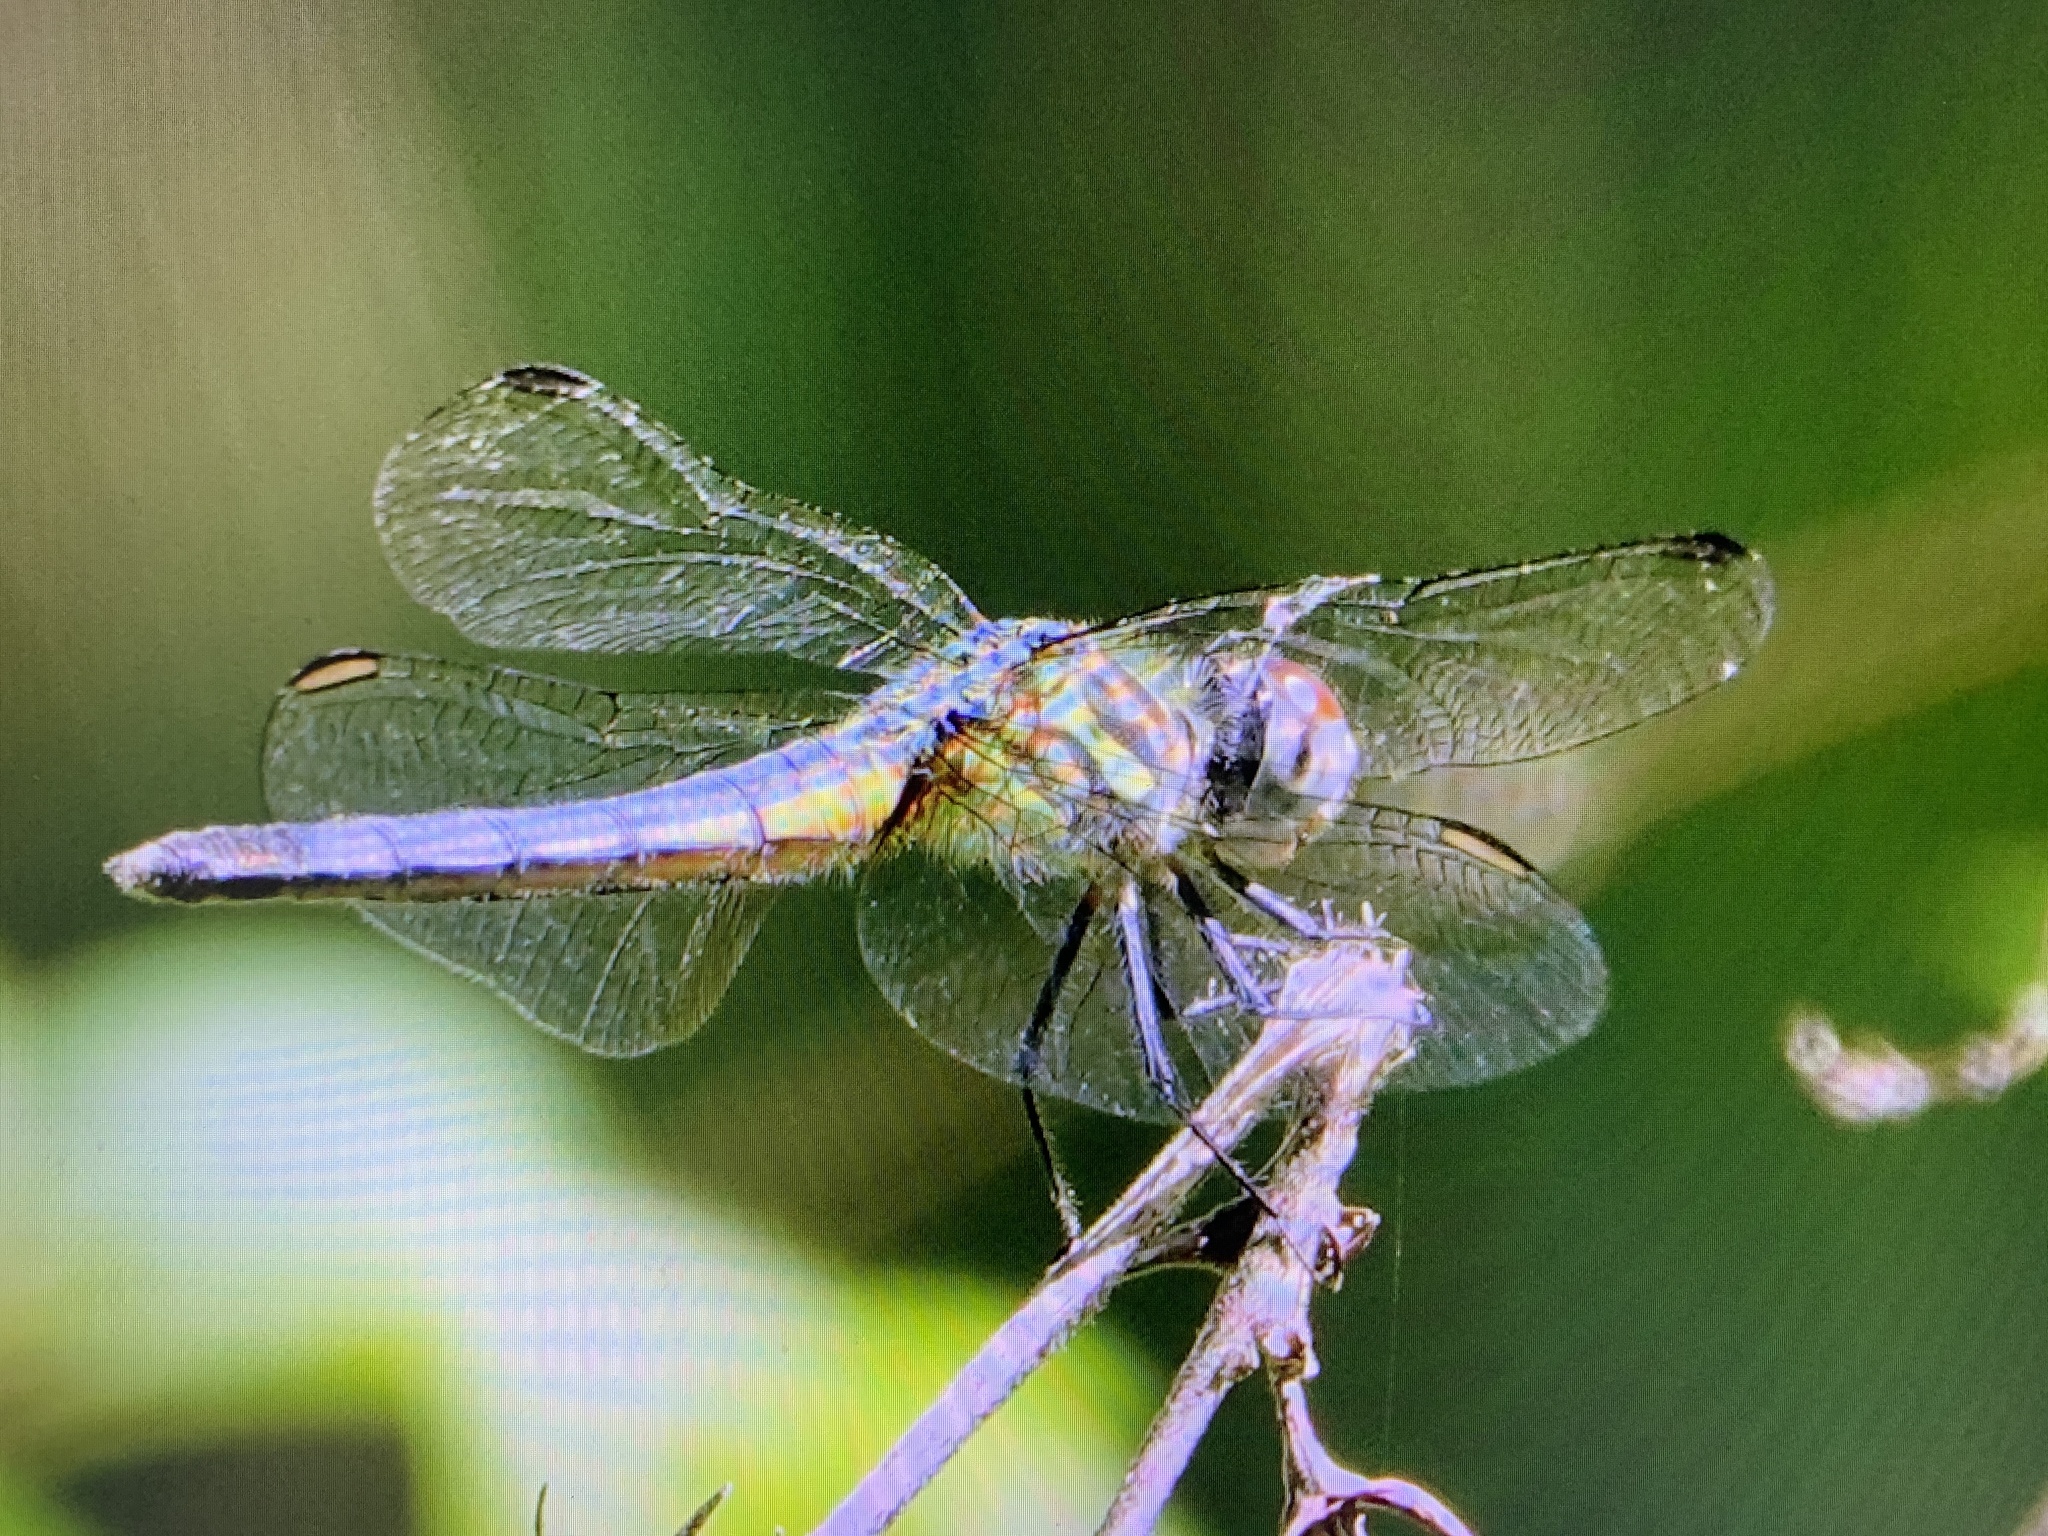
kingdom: Animalia
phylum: Arthropoda
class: Insecta
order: Odonata
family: Libellulidae
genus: Pachydiplax
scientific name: Pachydiplax longipennis
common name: Blue dasher
